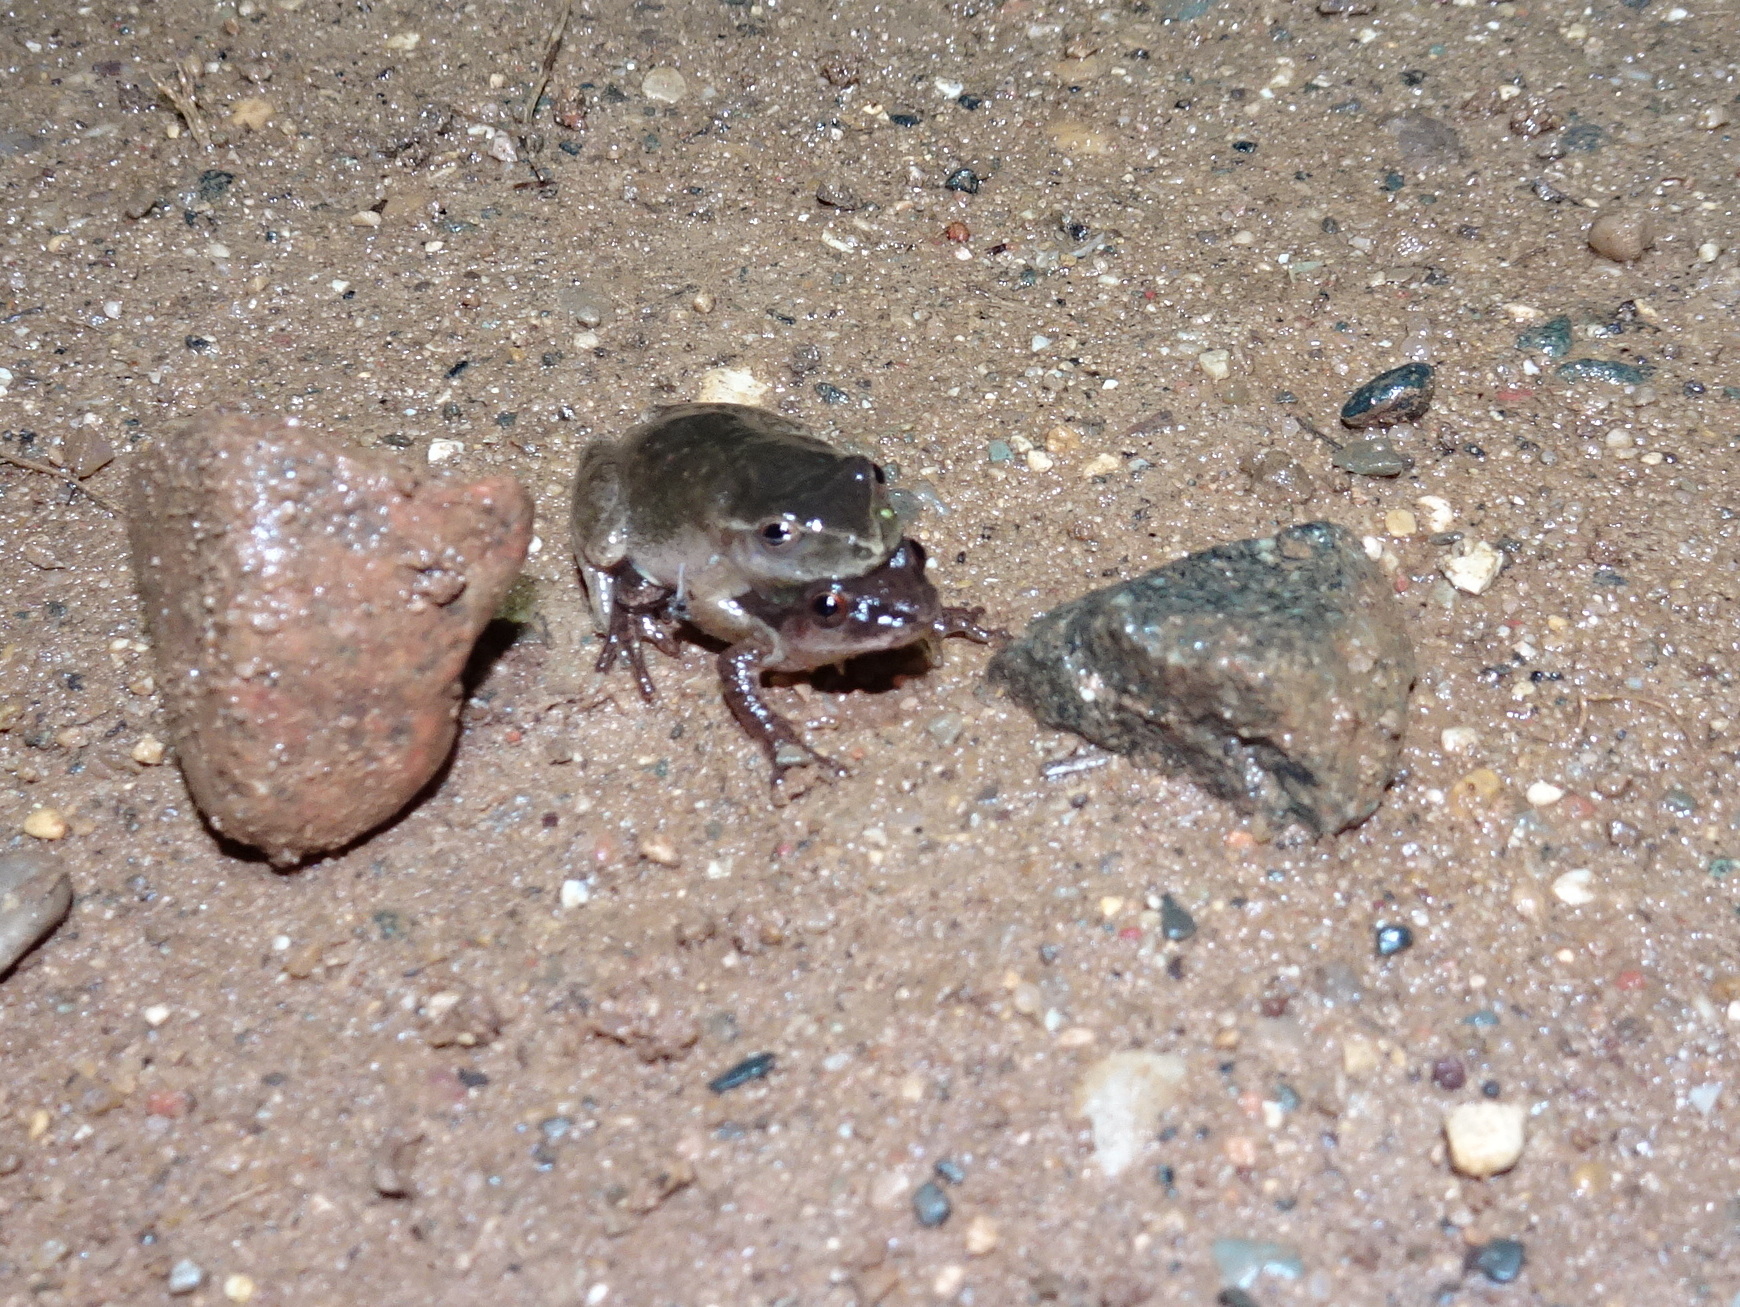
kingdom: Animalia
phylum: Chordata
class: Amphibia
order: Anura
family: Hylidae
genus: Pseudacris
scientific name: Pseudacris crucifer
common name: Spring peeper
